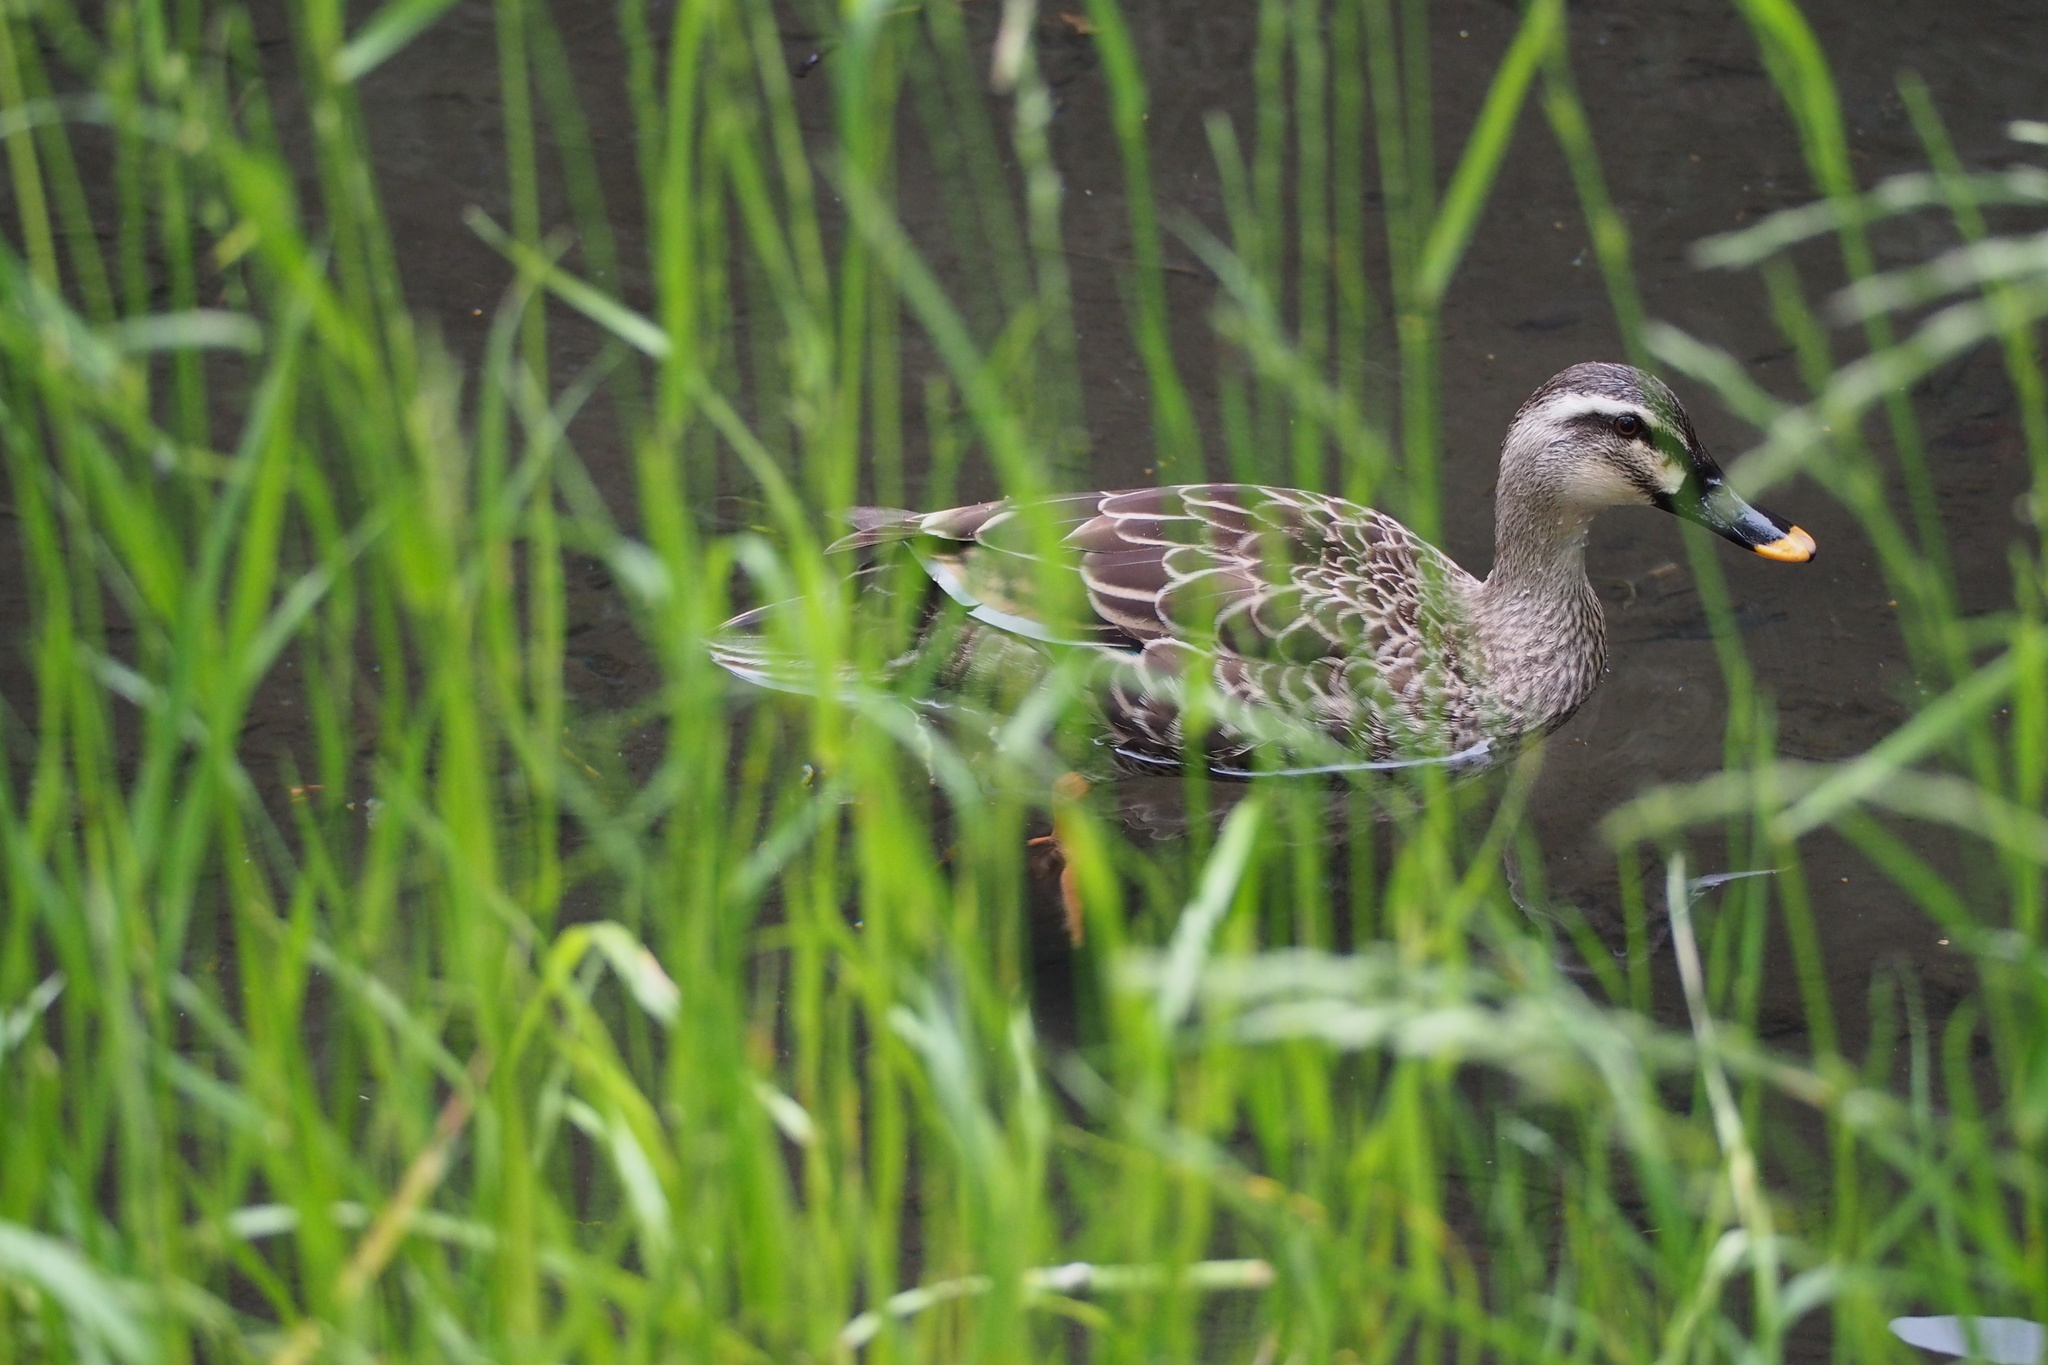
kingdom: Animalia
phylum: Chordata
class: Aves
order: Anseriformes
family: Anatidae
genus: Anas
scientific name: Anas zonorhyncha
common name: Eastern spot-billed duck
